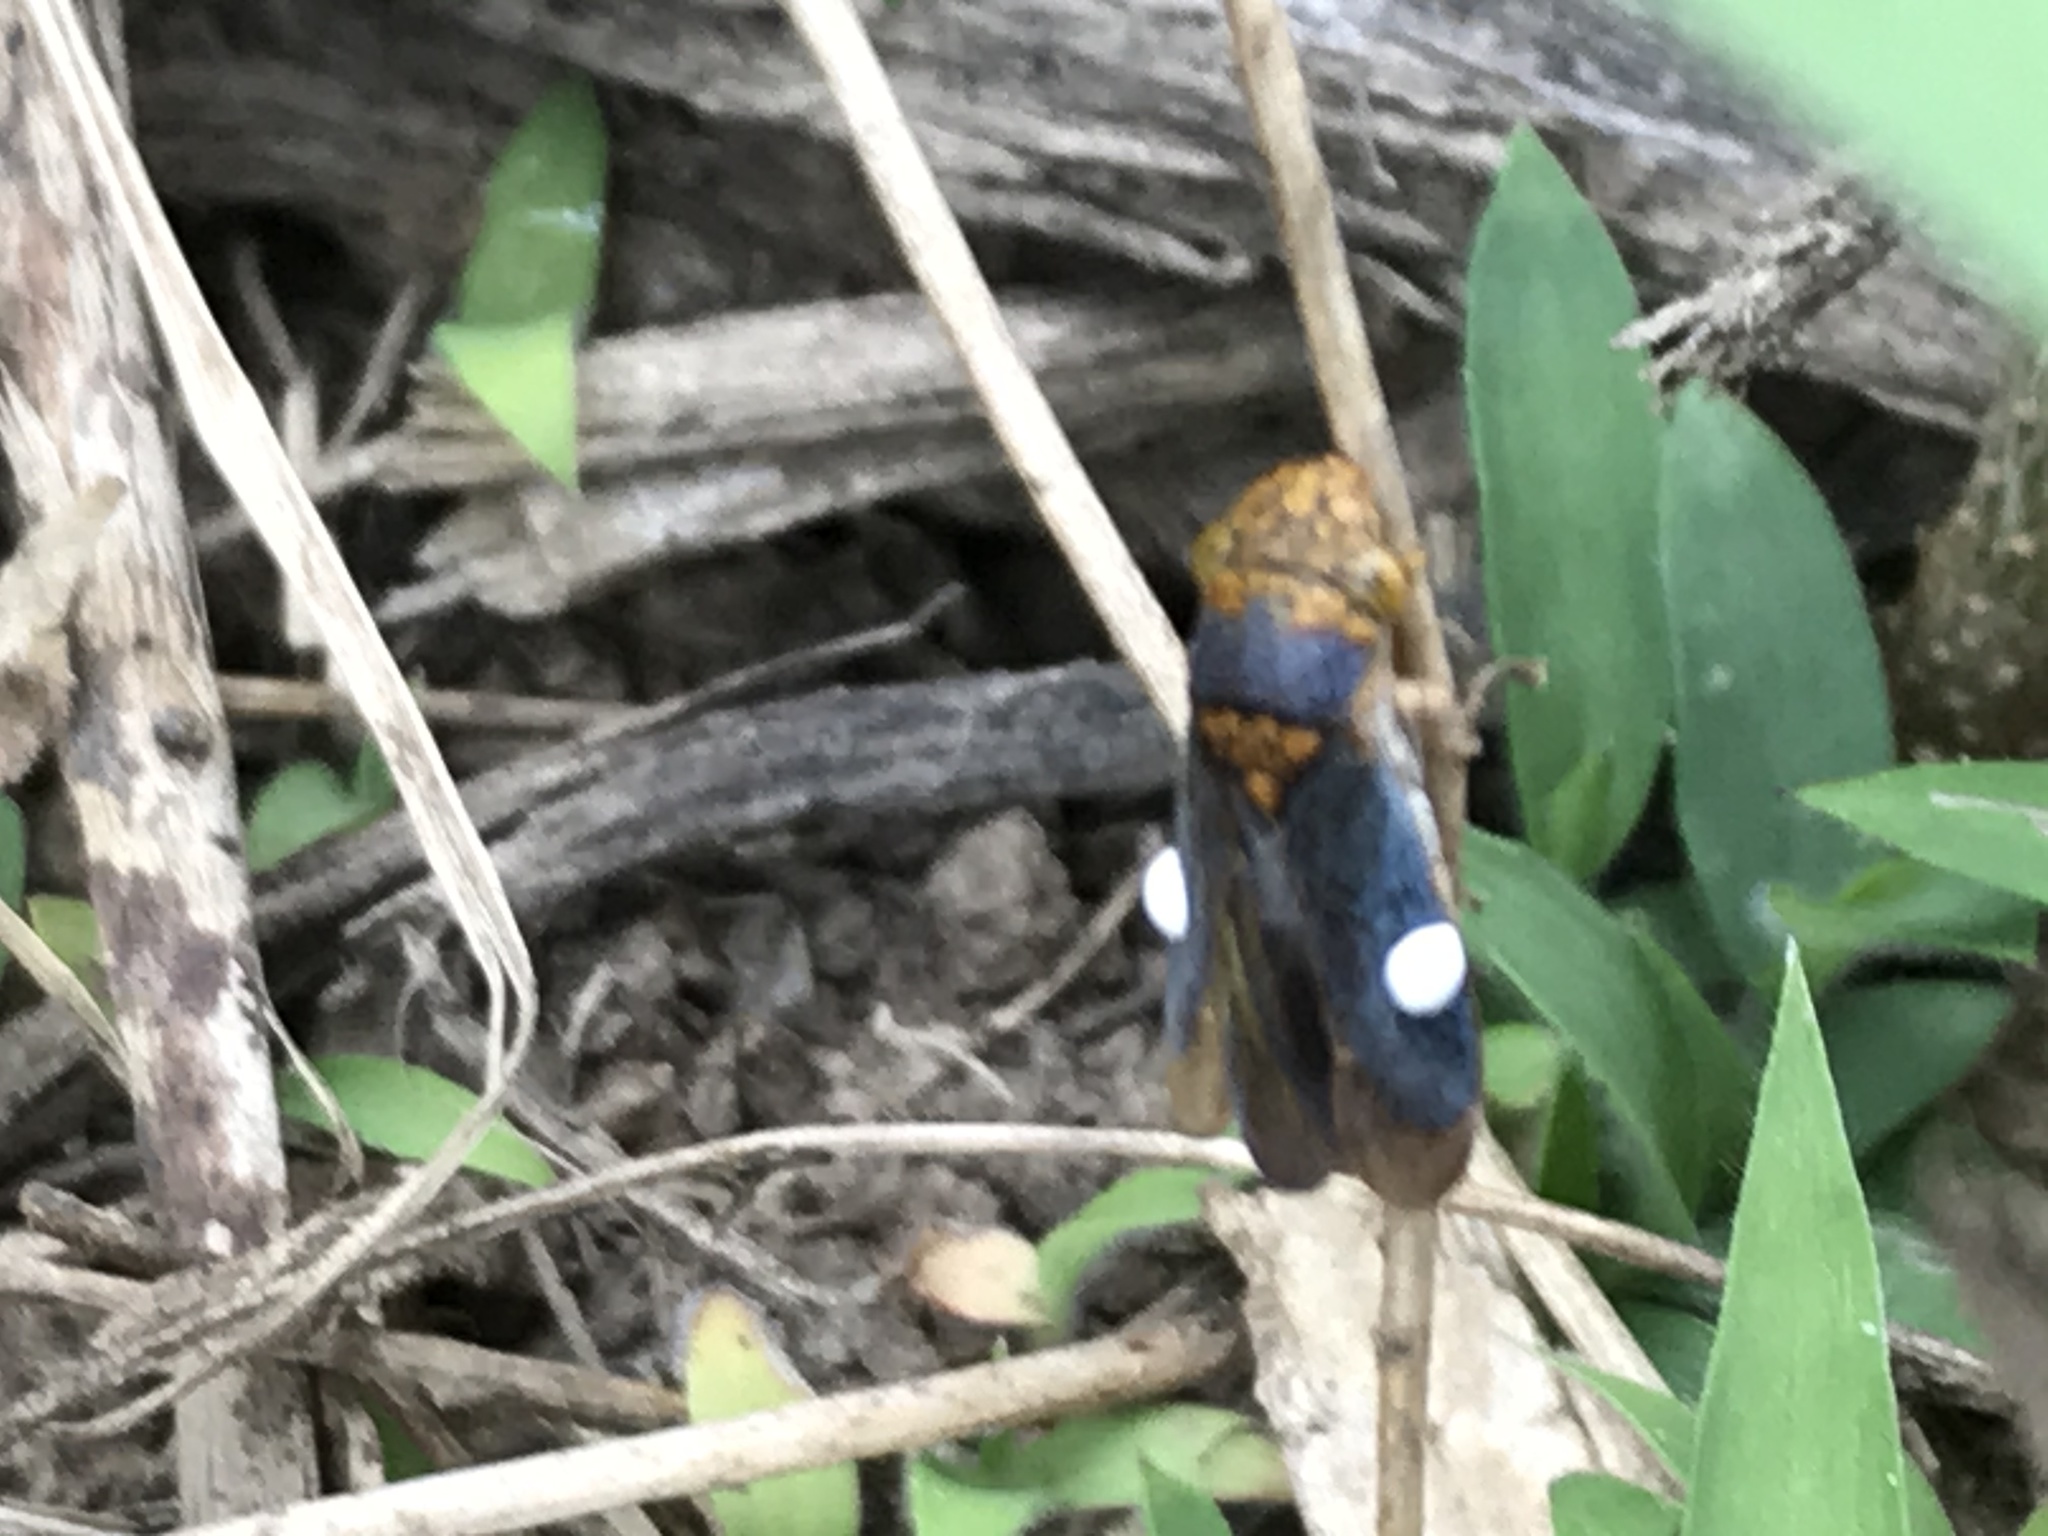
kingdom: Animalia
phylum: Arthropoda
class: Insecta
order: Hemiptera
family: Cicadellidae
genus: Oncometopia
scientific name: Oncometopia orbona
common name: Broad-headed sharpshooter
